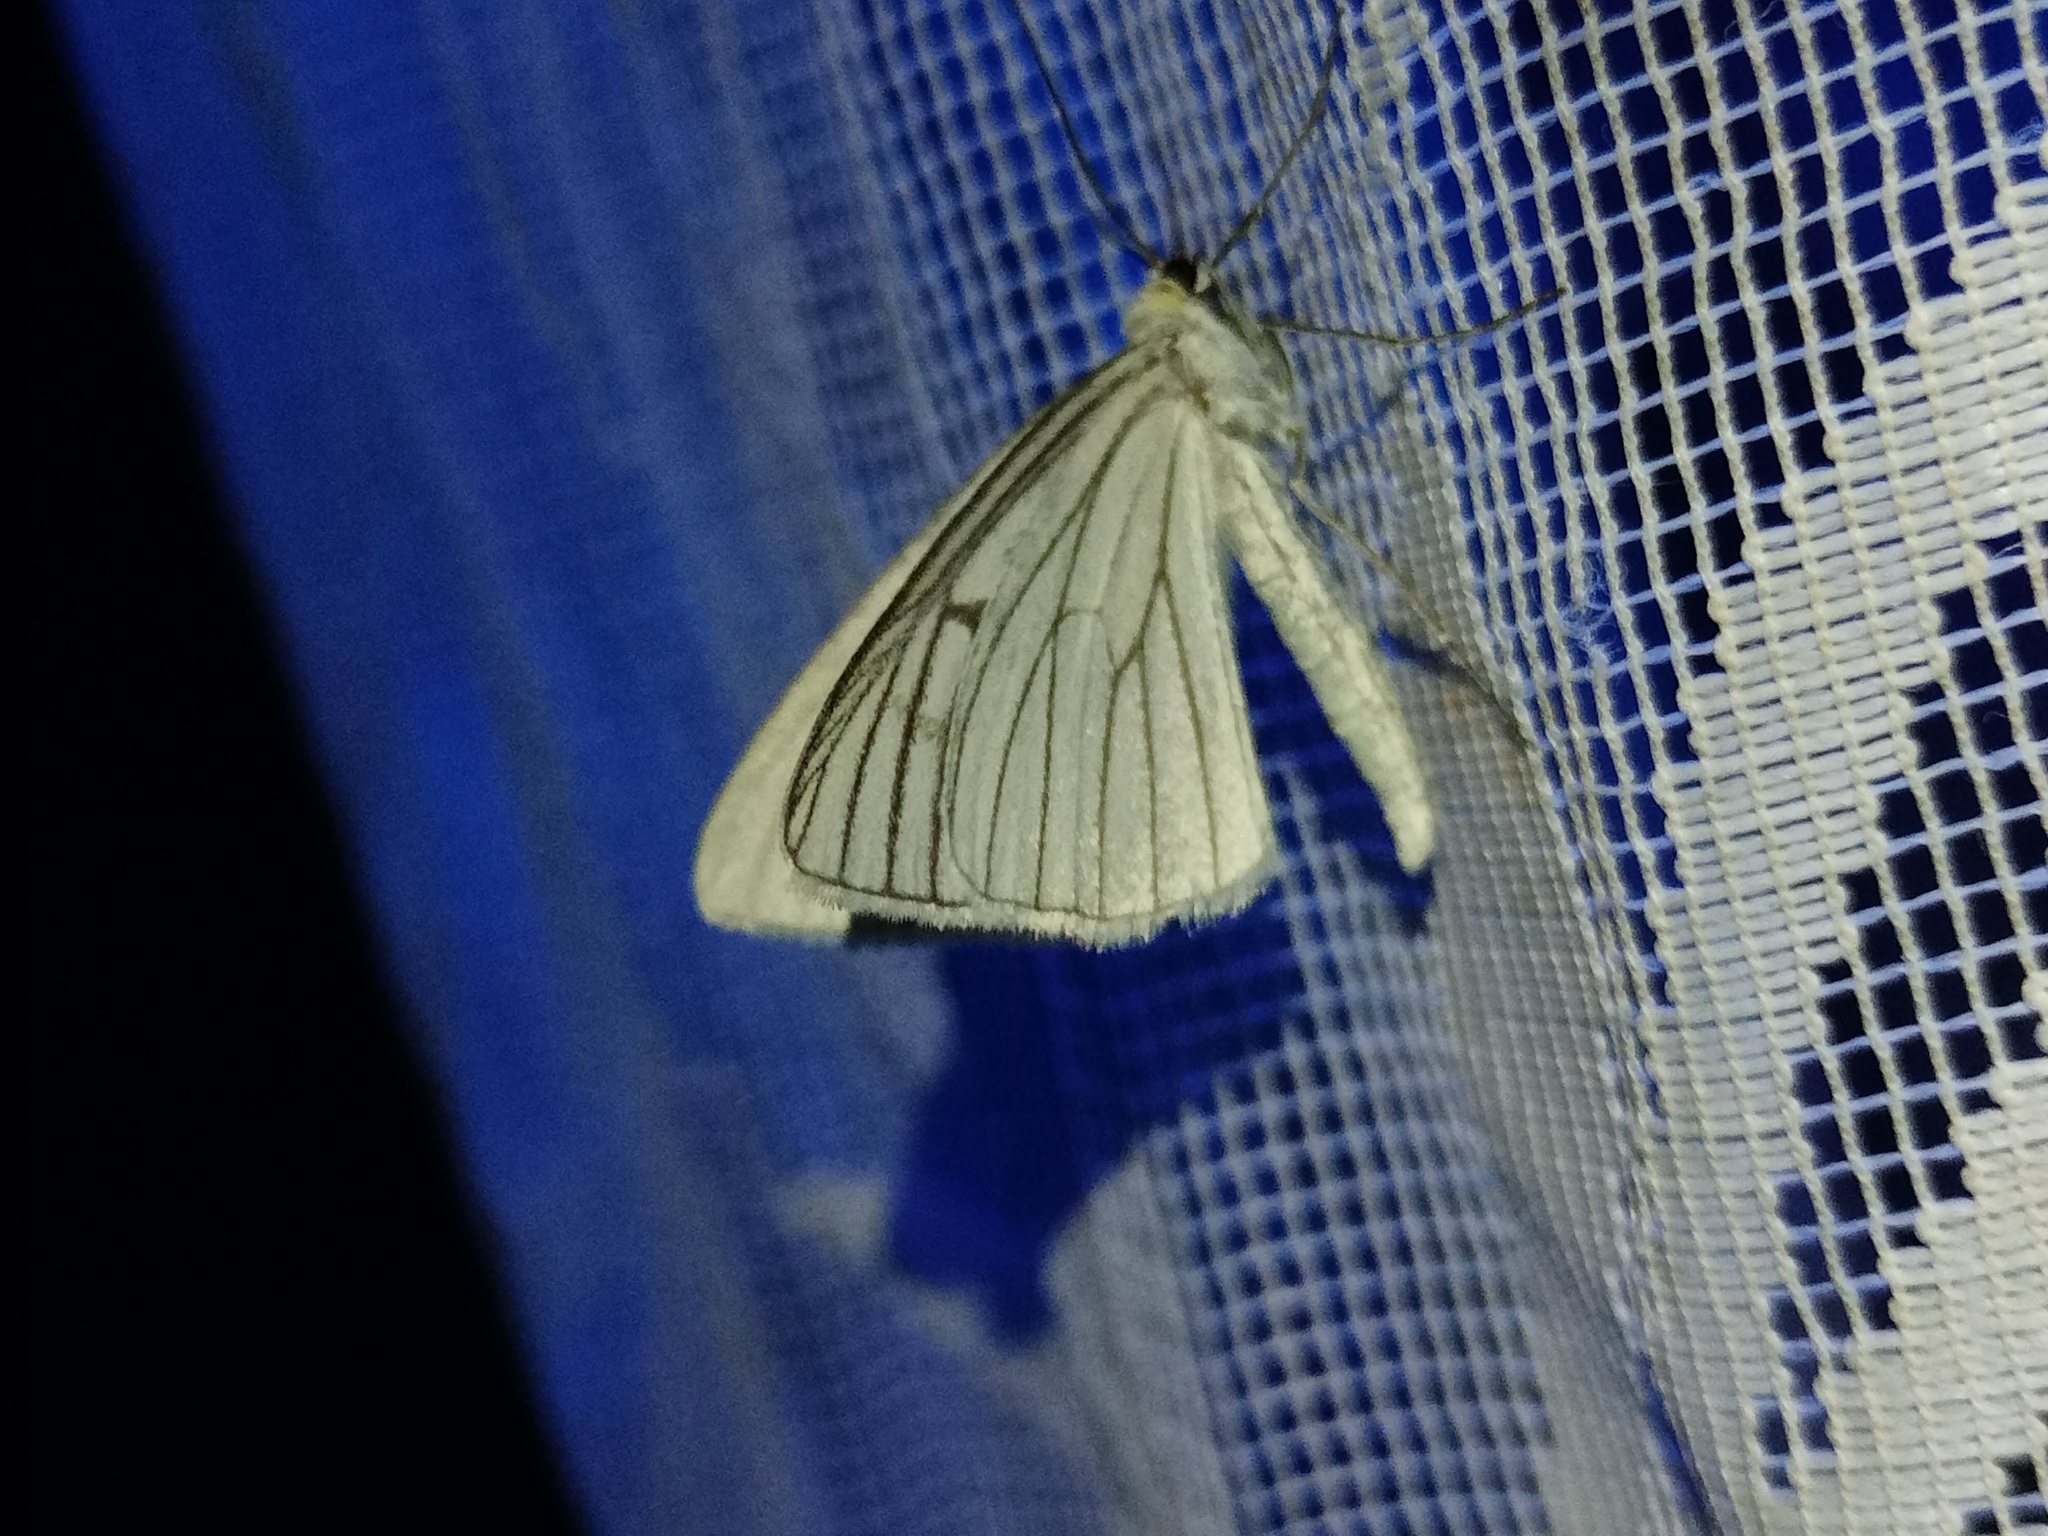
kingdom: Animalia
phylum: Arthropoda
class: Insecta
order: Lepidoptera
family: Geometridae
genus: Siona
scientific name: Siona lineata
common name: Black-veined moth
